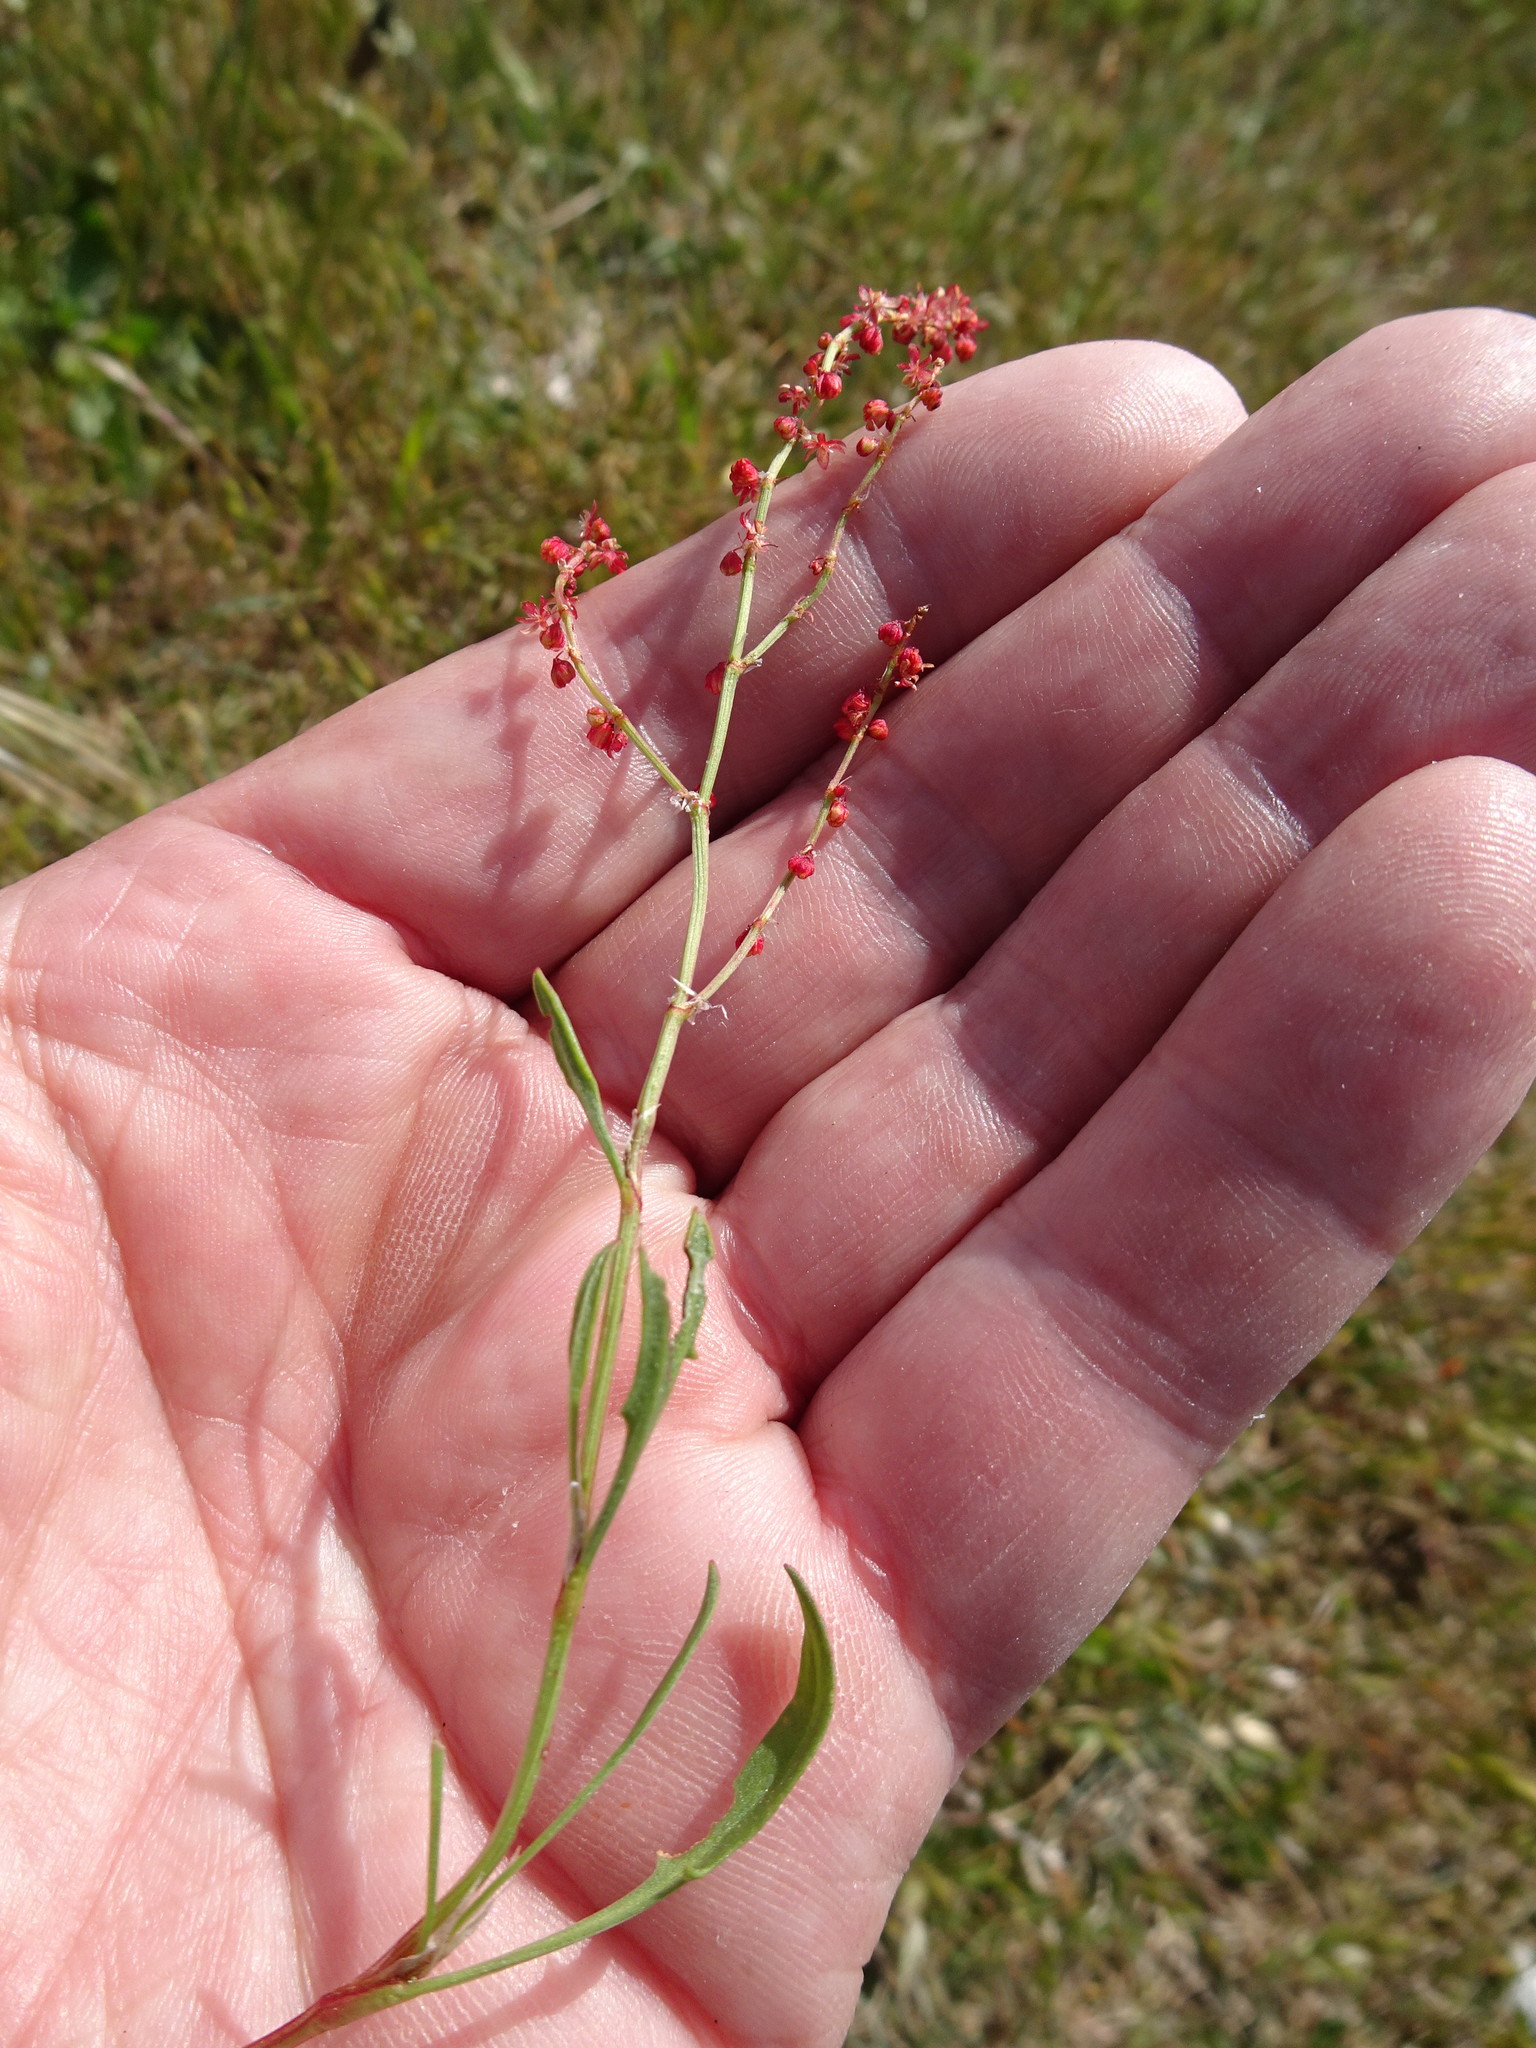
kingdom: Plantae
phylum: Tracheophyta
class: Magnoliopsida
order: Caryophyllales
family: Polygonaceae
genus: Rumex
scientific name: Rumex acetosella
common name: Common sheep sorrel
